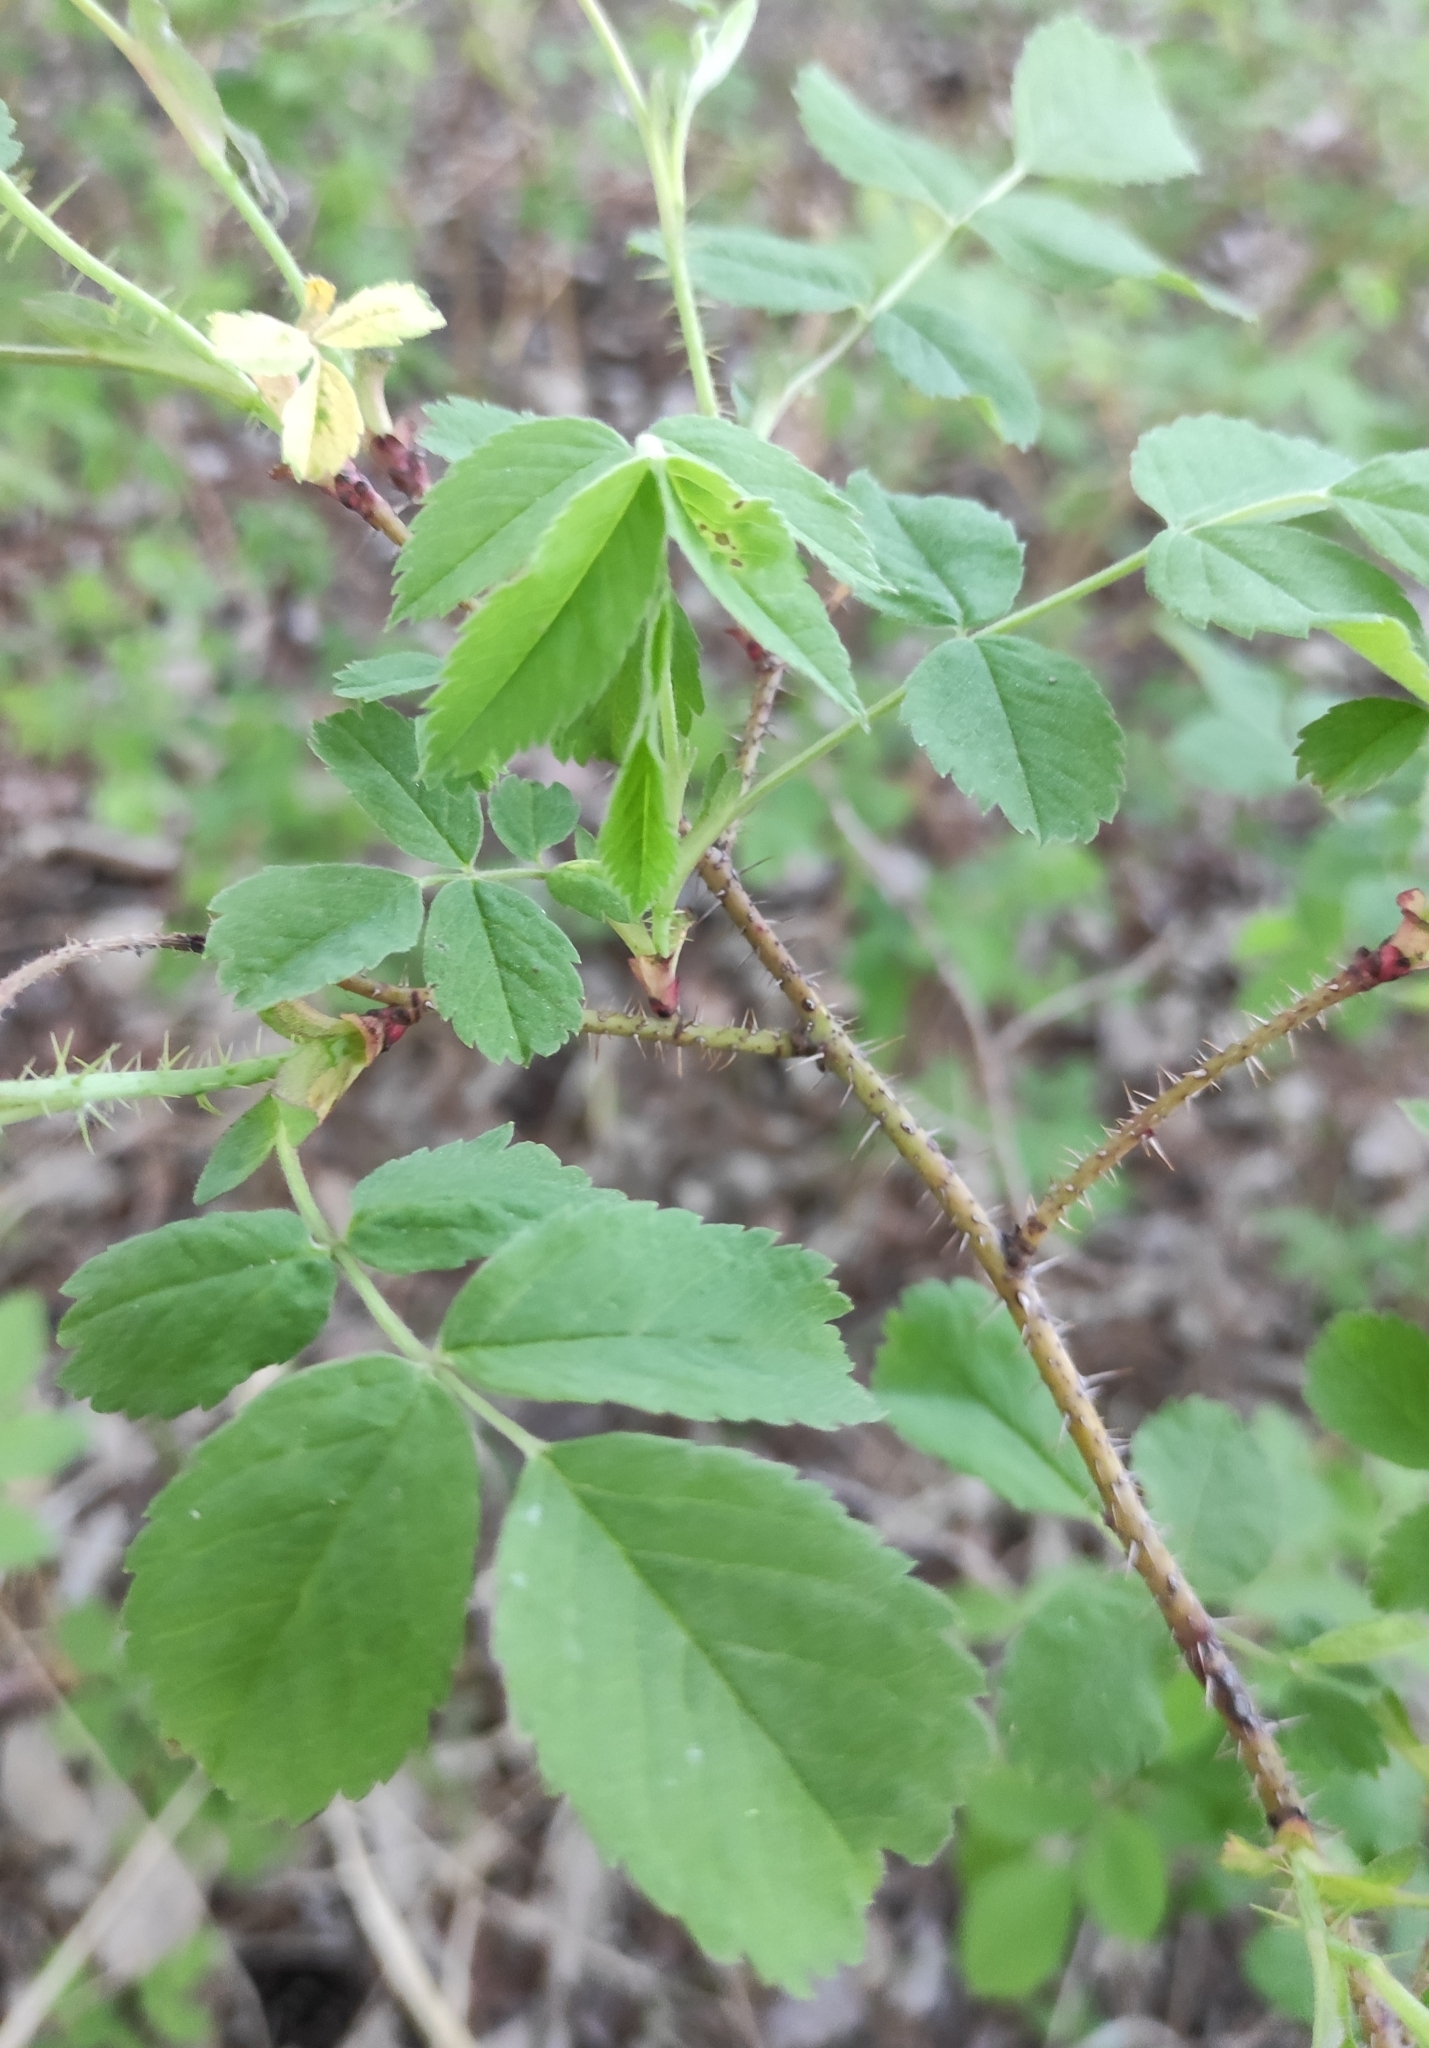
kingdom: Plantae
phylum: Tracheophyta
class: Magnoliopsida
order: Rosales
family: Rosaceae
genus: Rosa
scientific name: Rosa acicularis
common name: Prickly rose
